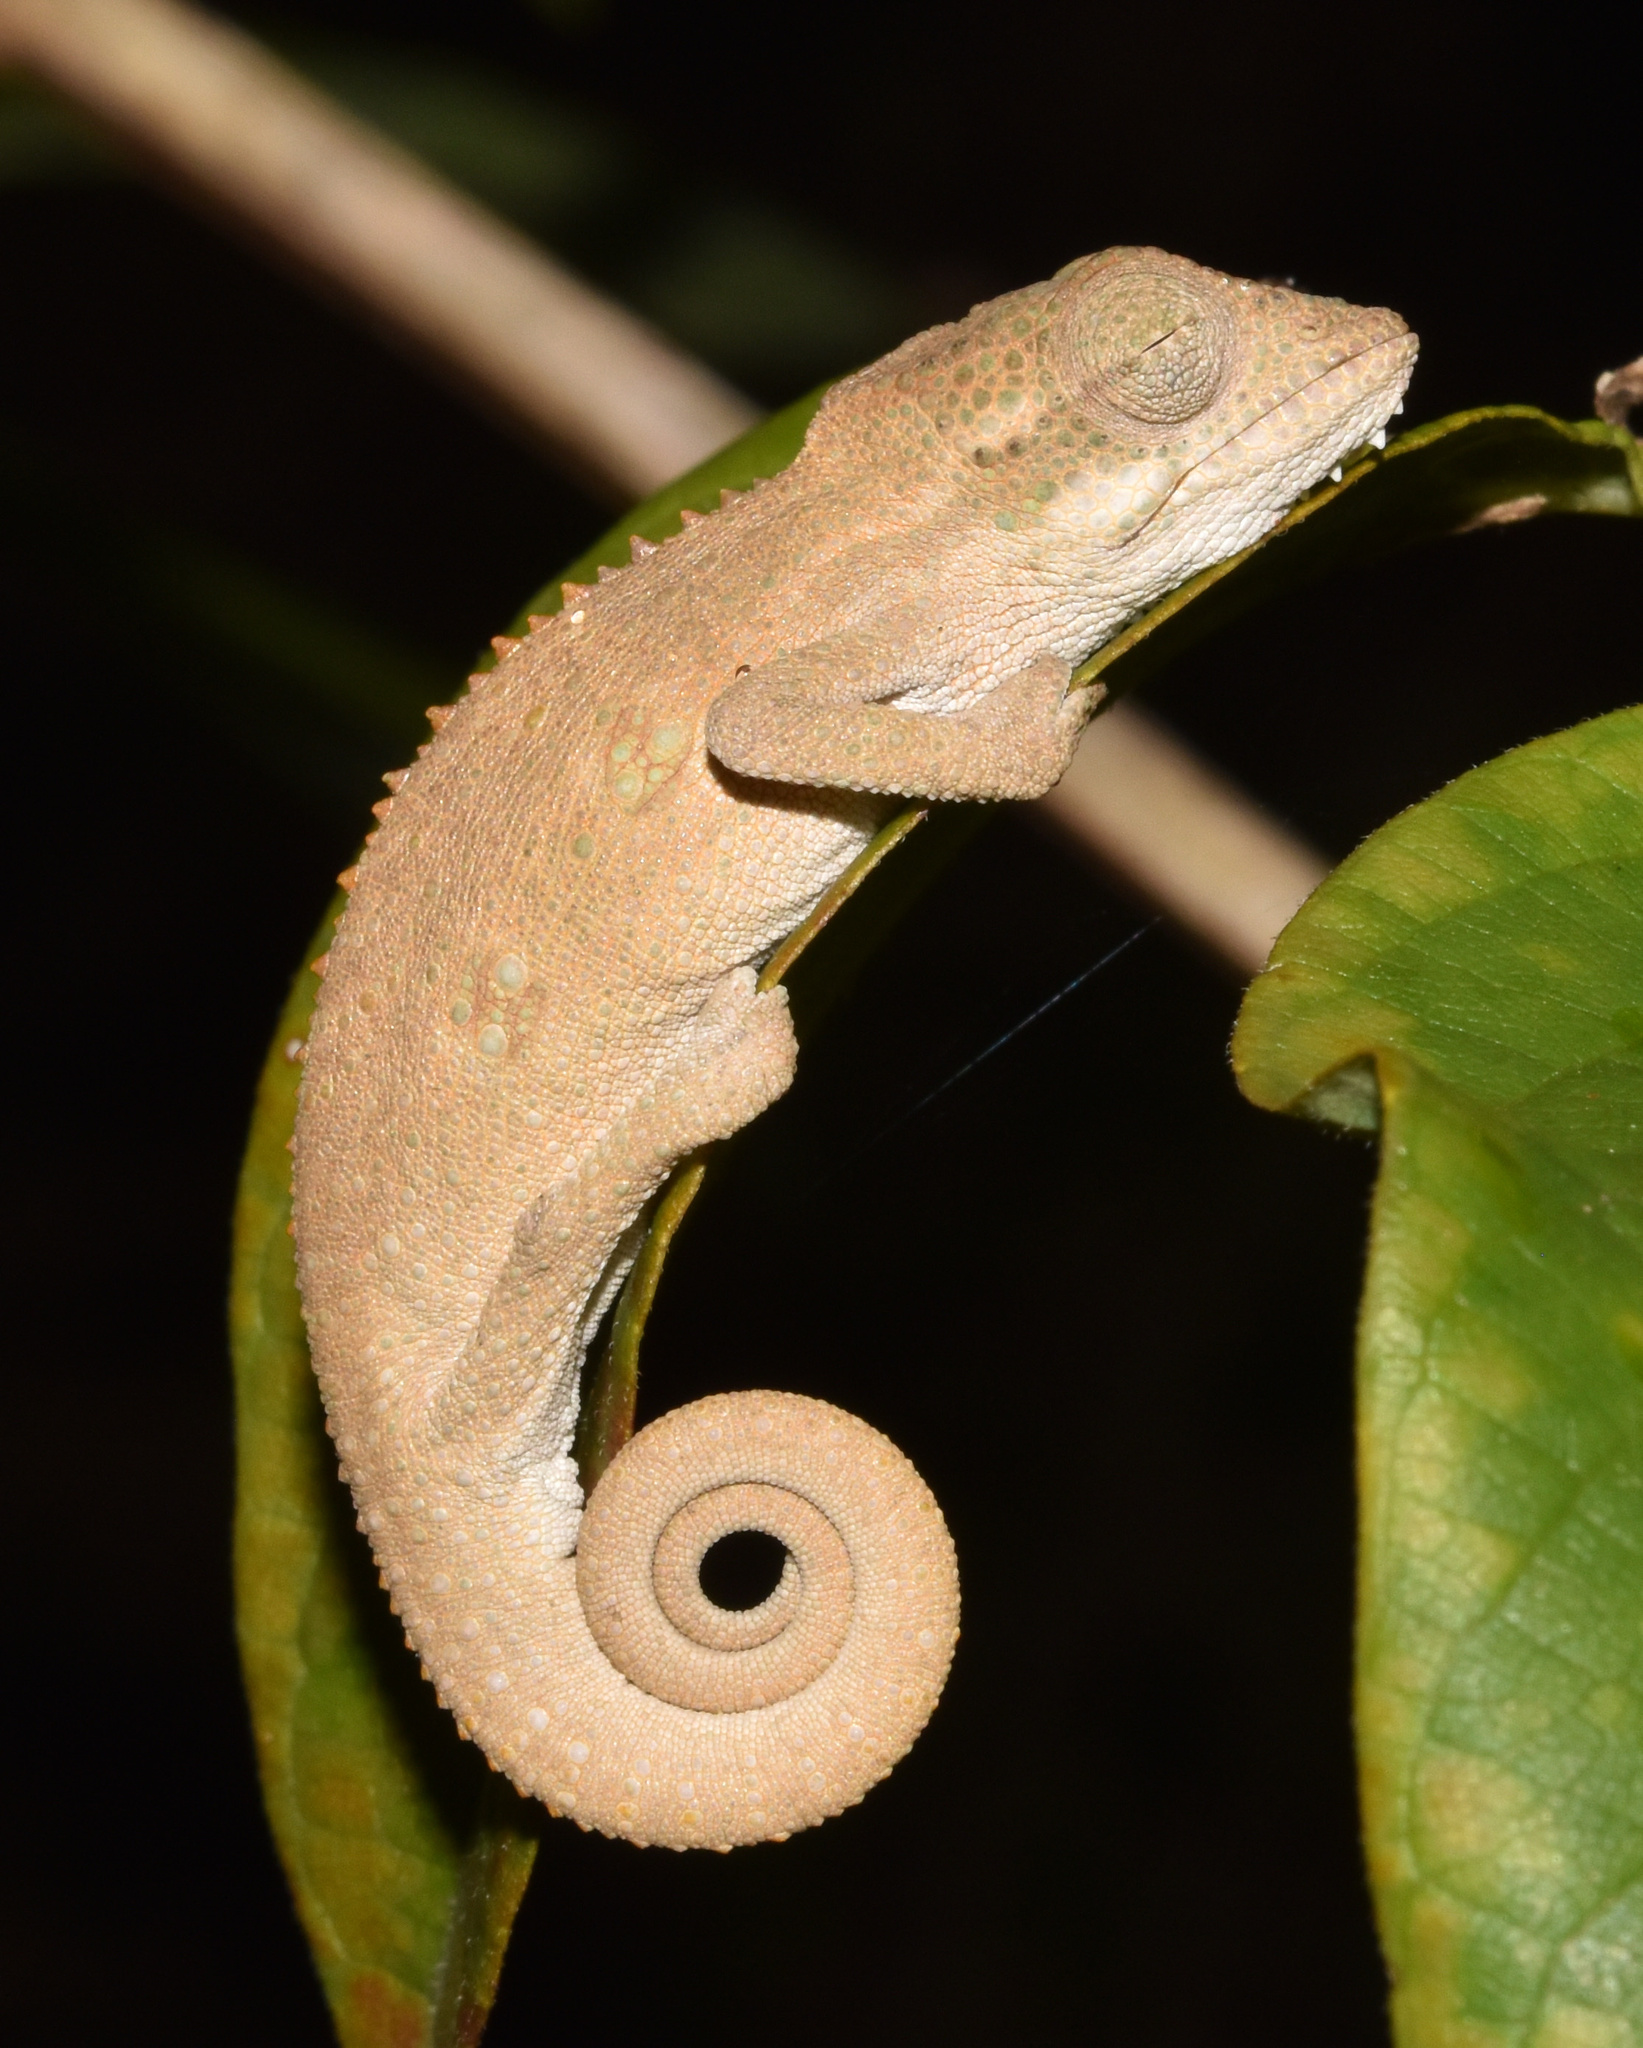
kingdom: Animalia
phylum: Chordata
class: Squamata
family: Chamaeleonidae
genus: Bradypodion
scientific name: Bradypodion melanocephalum
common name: Black-headed dwarf chameleon
